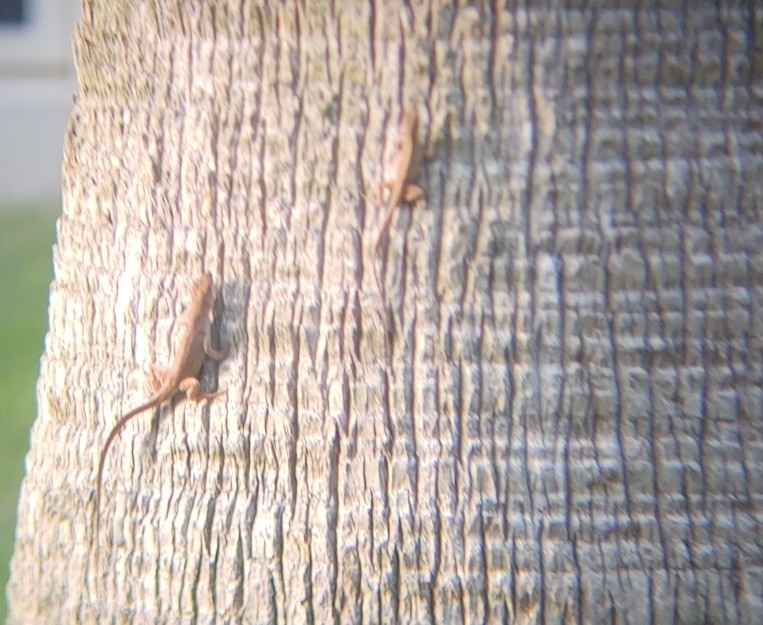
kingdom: Animalia
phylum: Chordata
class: Squamata
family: Dactyloidae
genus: Anolis
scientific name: Anolis sagrei
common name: Brown anole
